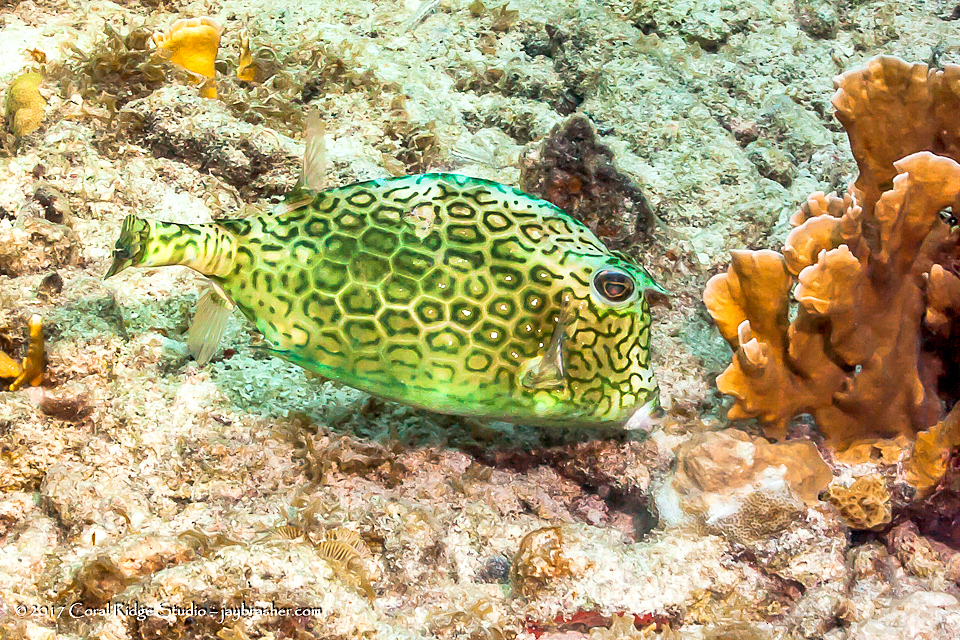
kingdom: Animalia
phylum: Chordata
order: Tetraodontiformes
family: Ostraciidae
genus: Acanthostracion
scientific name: Acanthostracion polygonius
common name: Honeycomb cowfish
